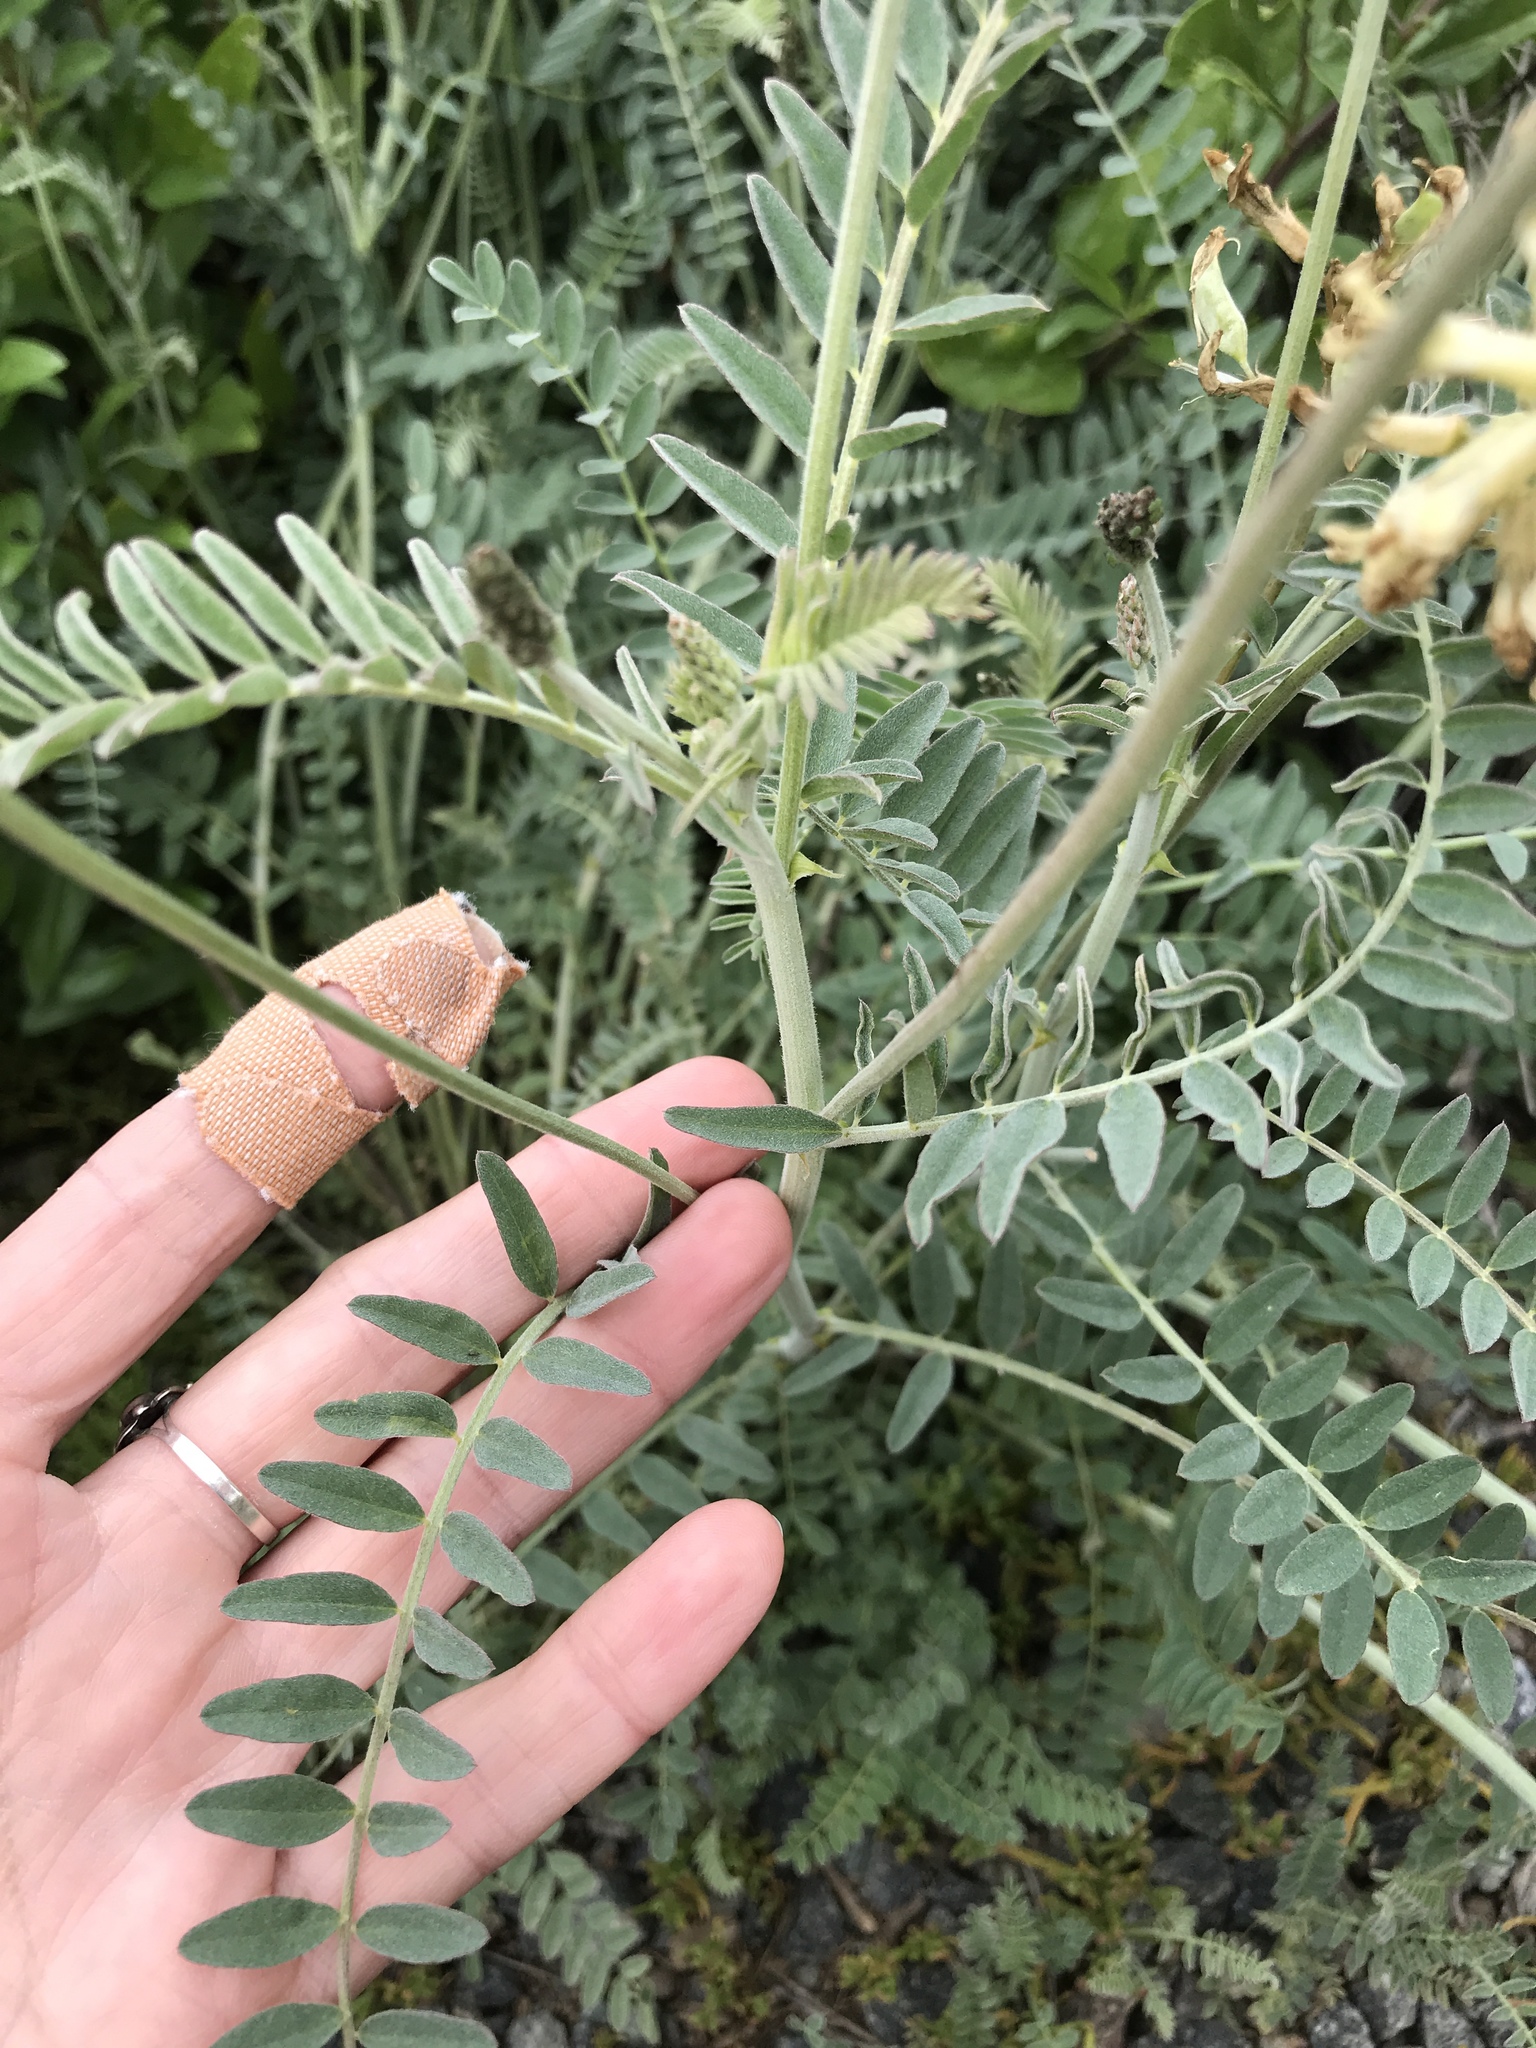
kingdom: Plantae
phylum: Tracheophyta
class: Magnoliopsida
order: Fabales
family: Fabaceae
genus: Astragalus
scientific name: Astragalus trichopodus
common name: Santa barbara milk-vetch
